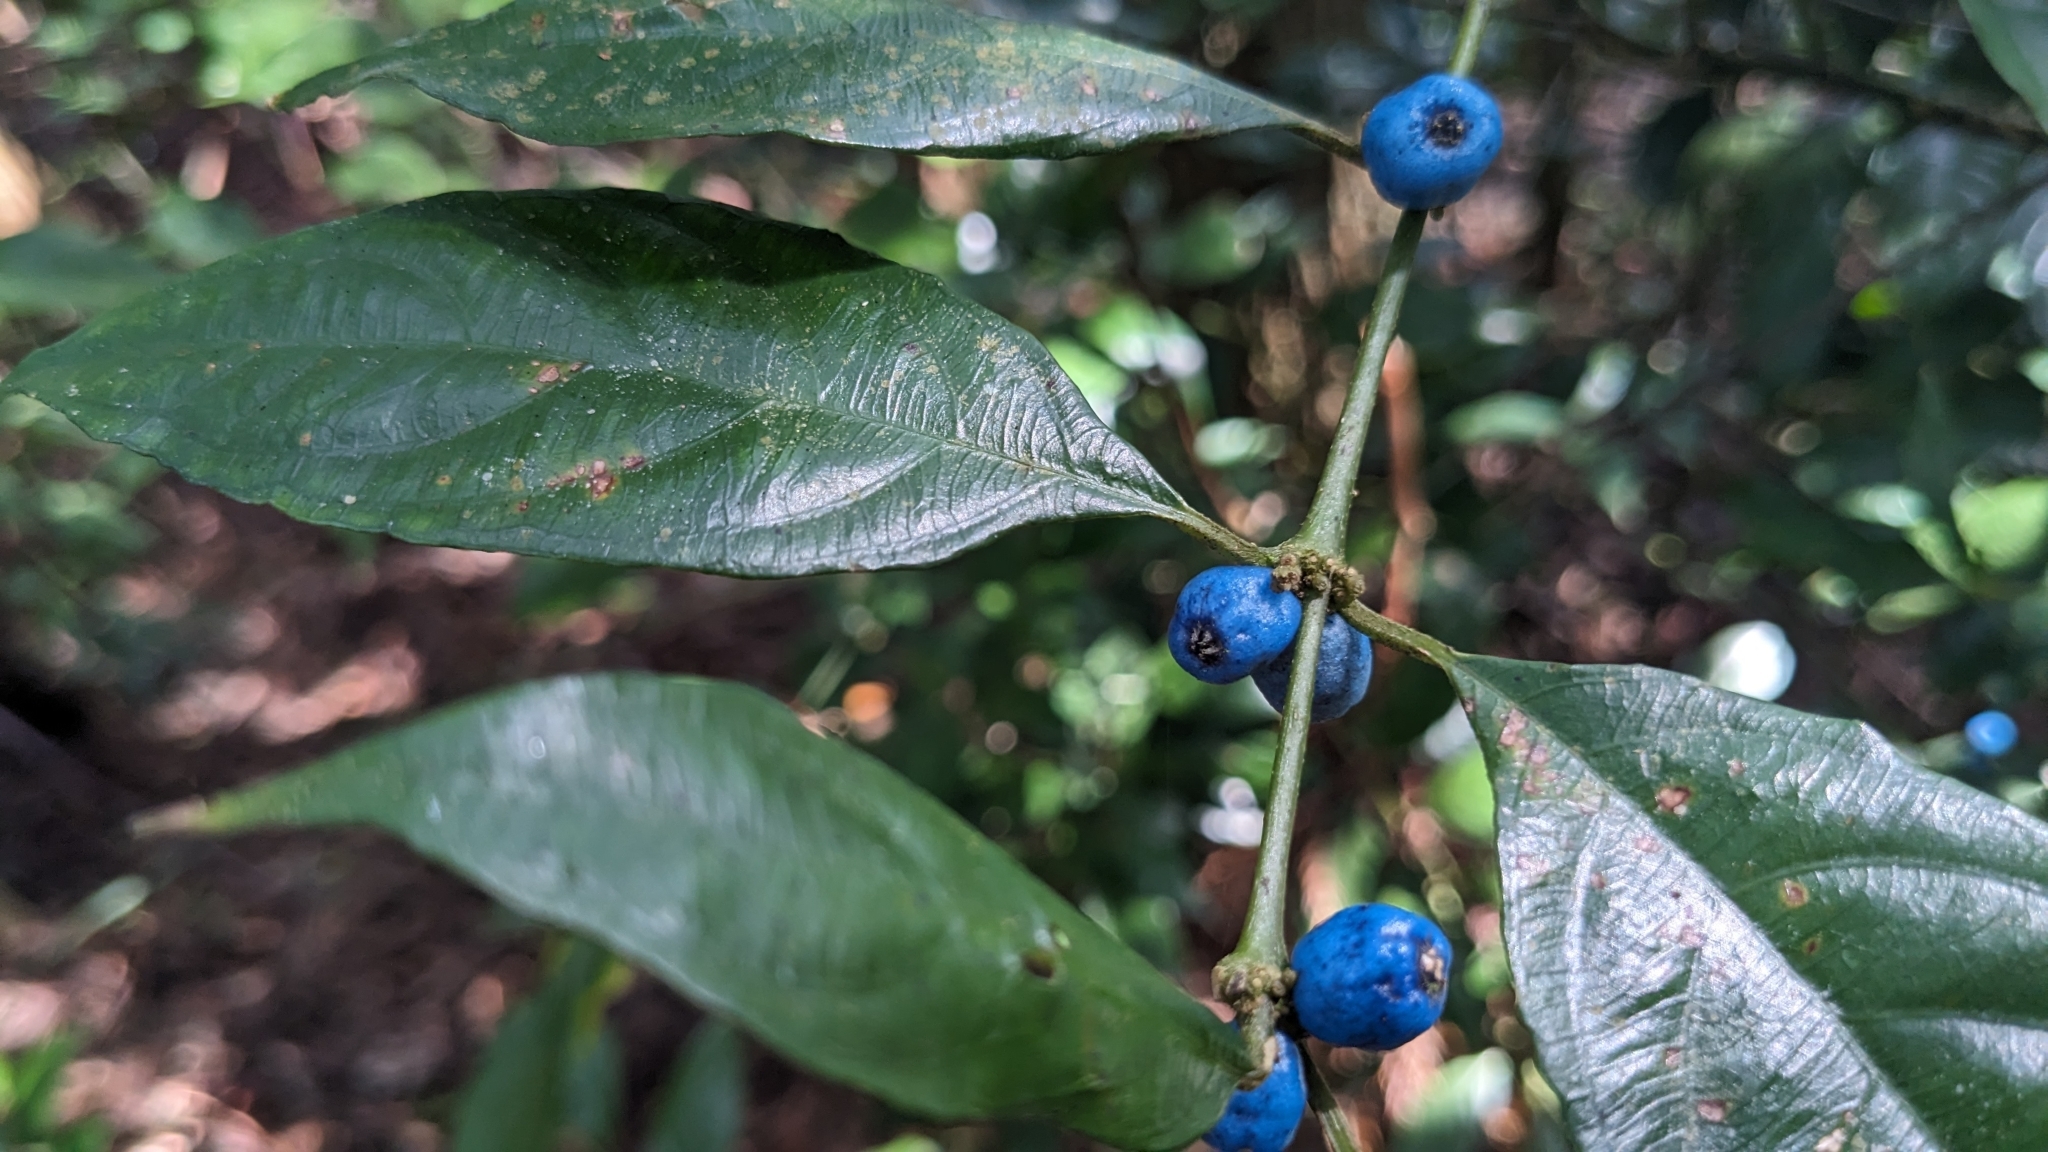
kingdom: Plantae
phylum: Tracheophyta
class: Magnoliopsida
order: Gentianales
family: Rubiaceae
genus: Lasianthus
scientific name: Lasianthus fordii
